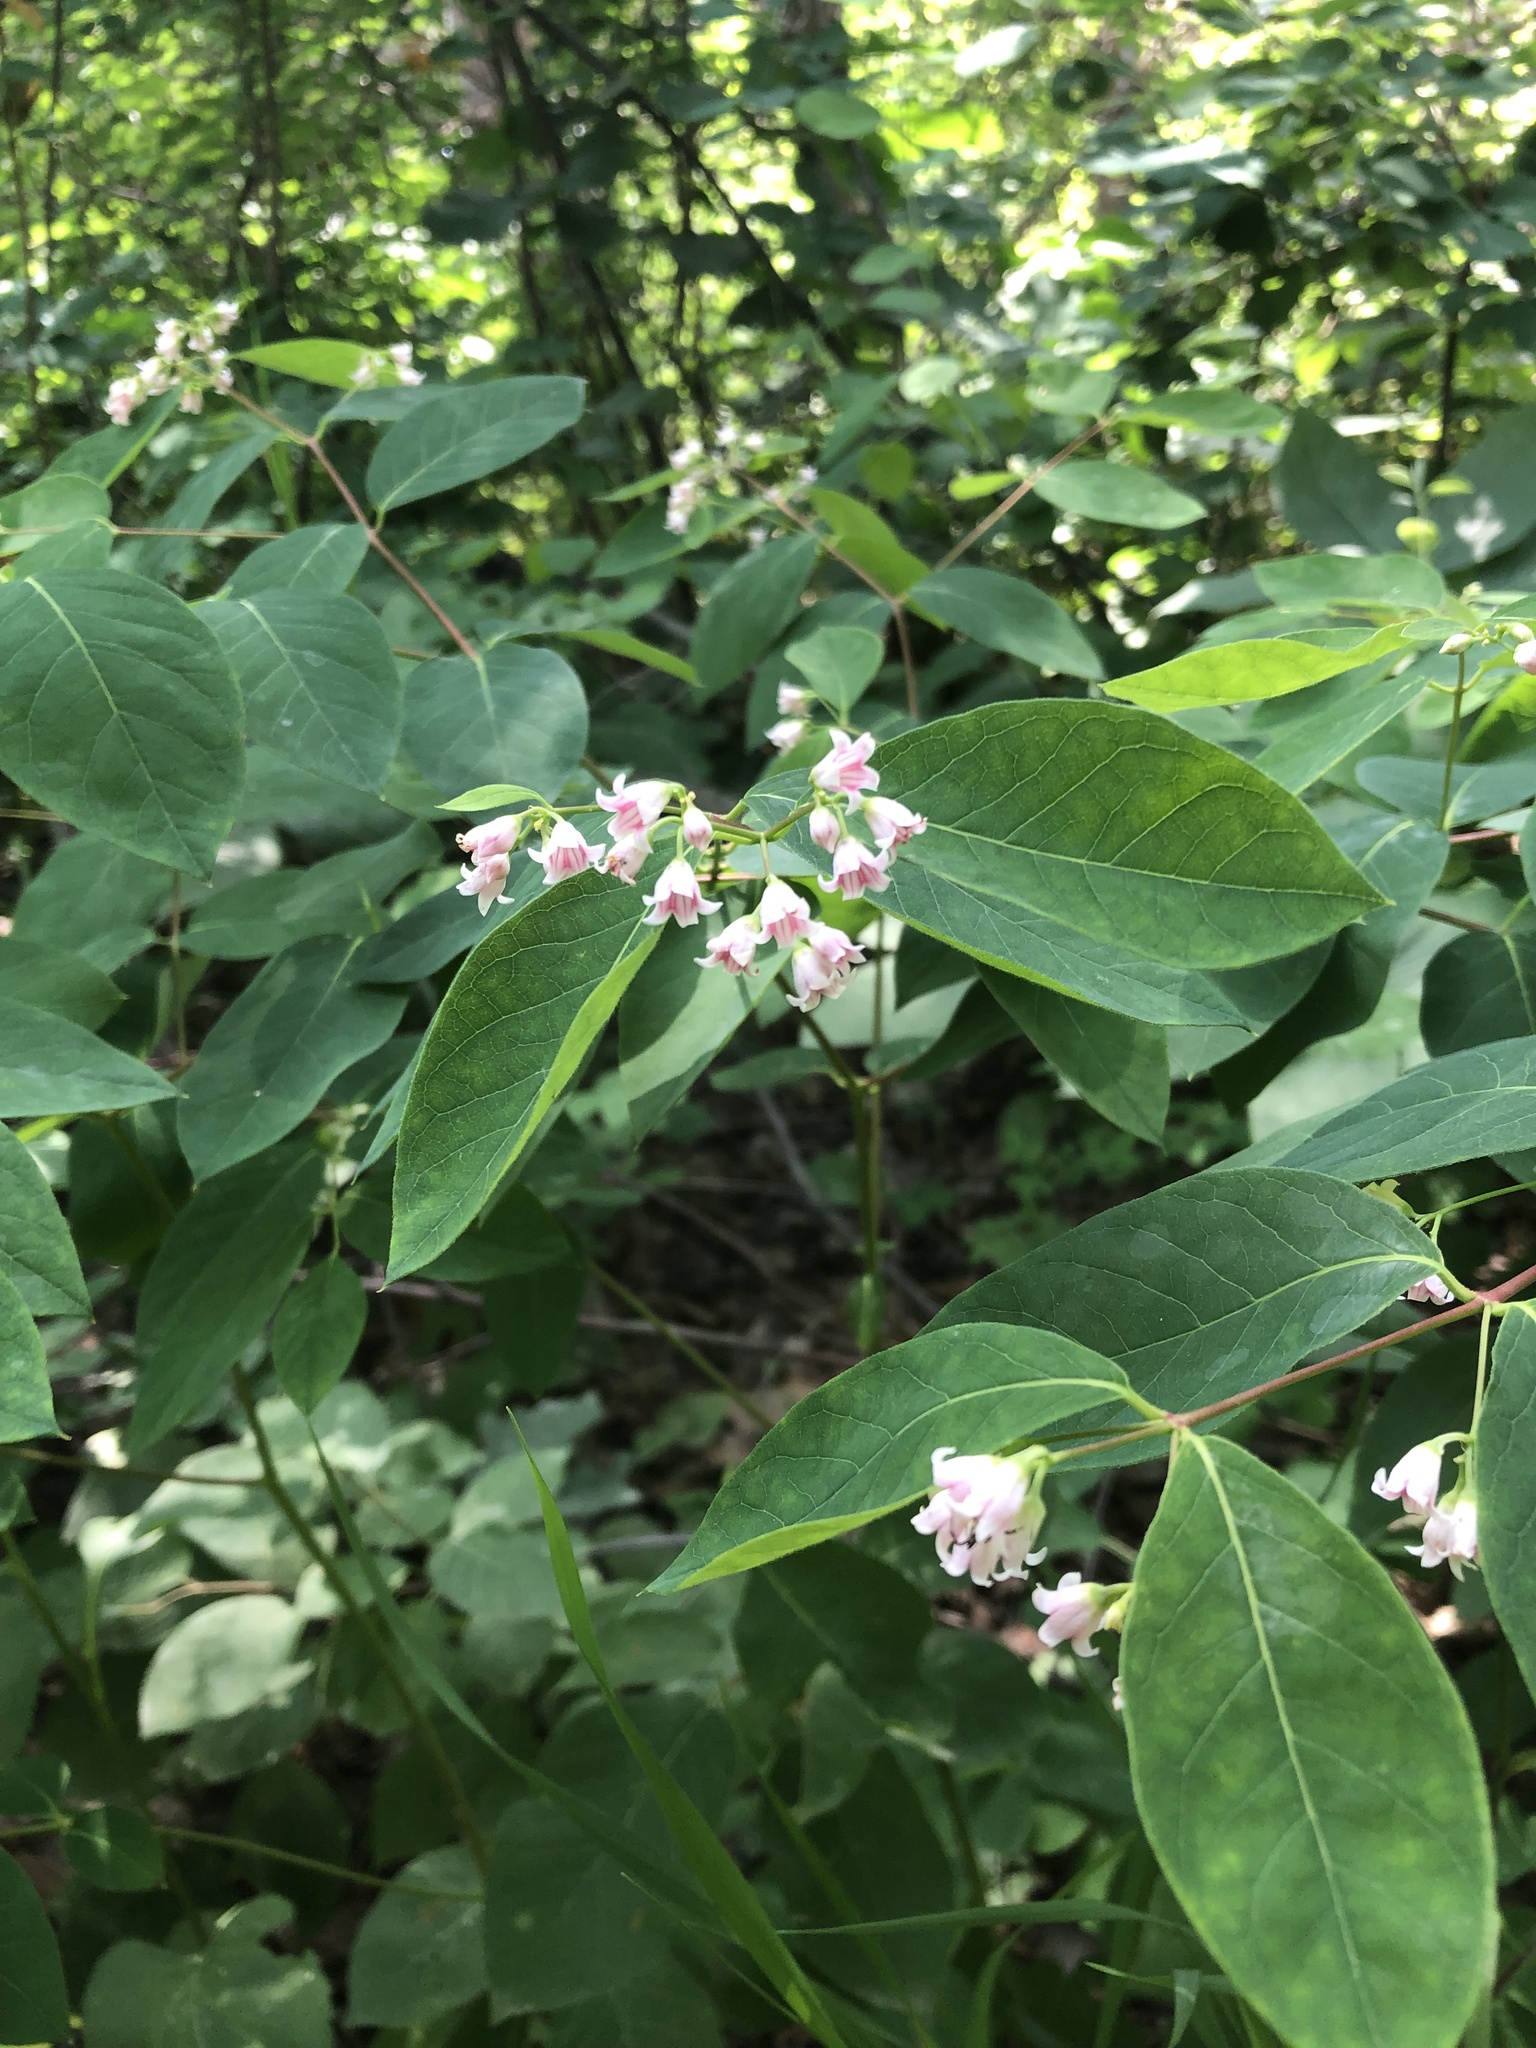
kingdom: Plantae
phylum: Tracheophyta
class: Magnoliopsida
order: Gentianales
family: Apocynaceae
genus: Apocynum
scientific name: Apocynum androsaemifolium
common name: Spreading dogbane
